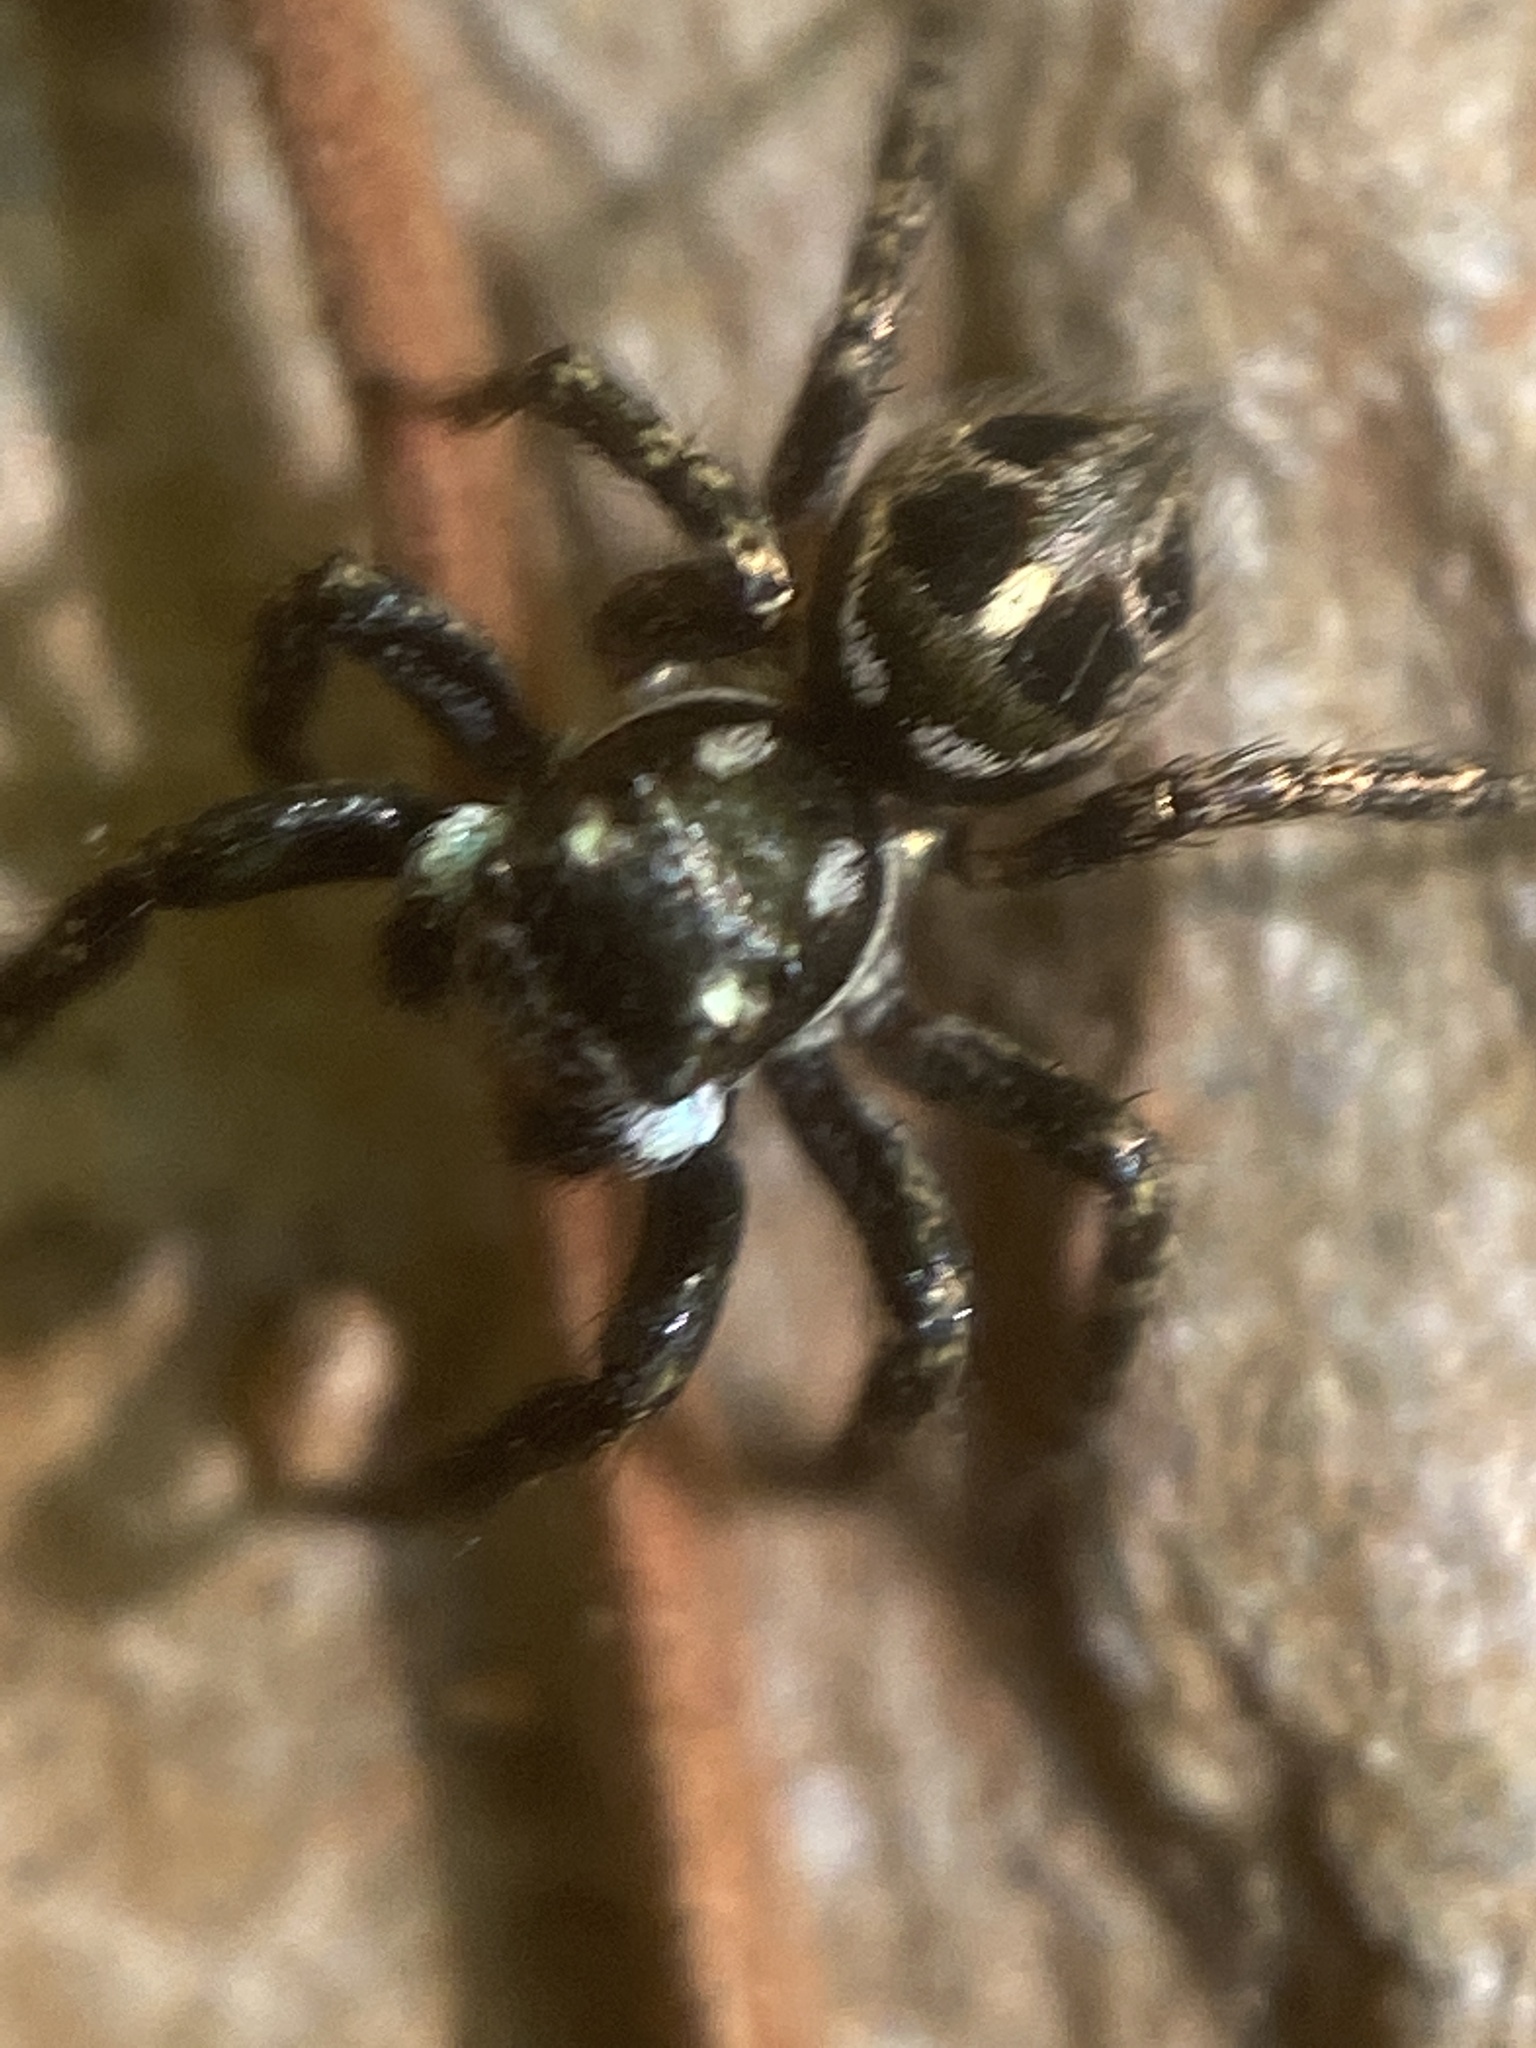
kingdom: Animalia
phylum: Arthropoda
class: Arachnida
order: Araneae
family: Salticidae
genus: Anasaitis
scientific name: Anasaitis canosa
